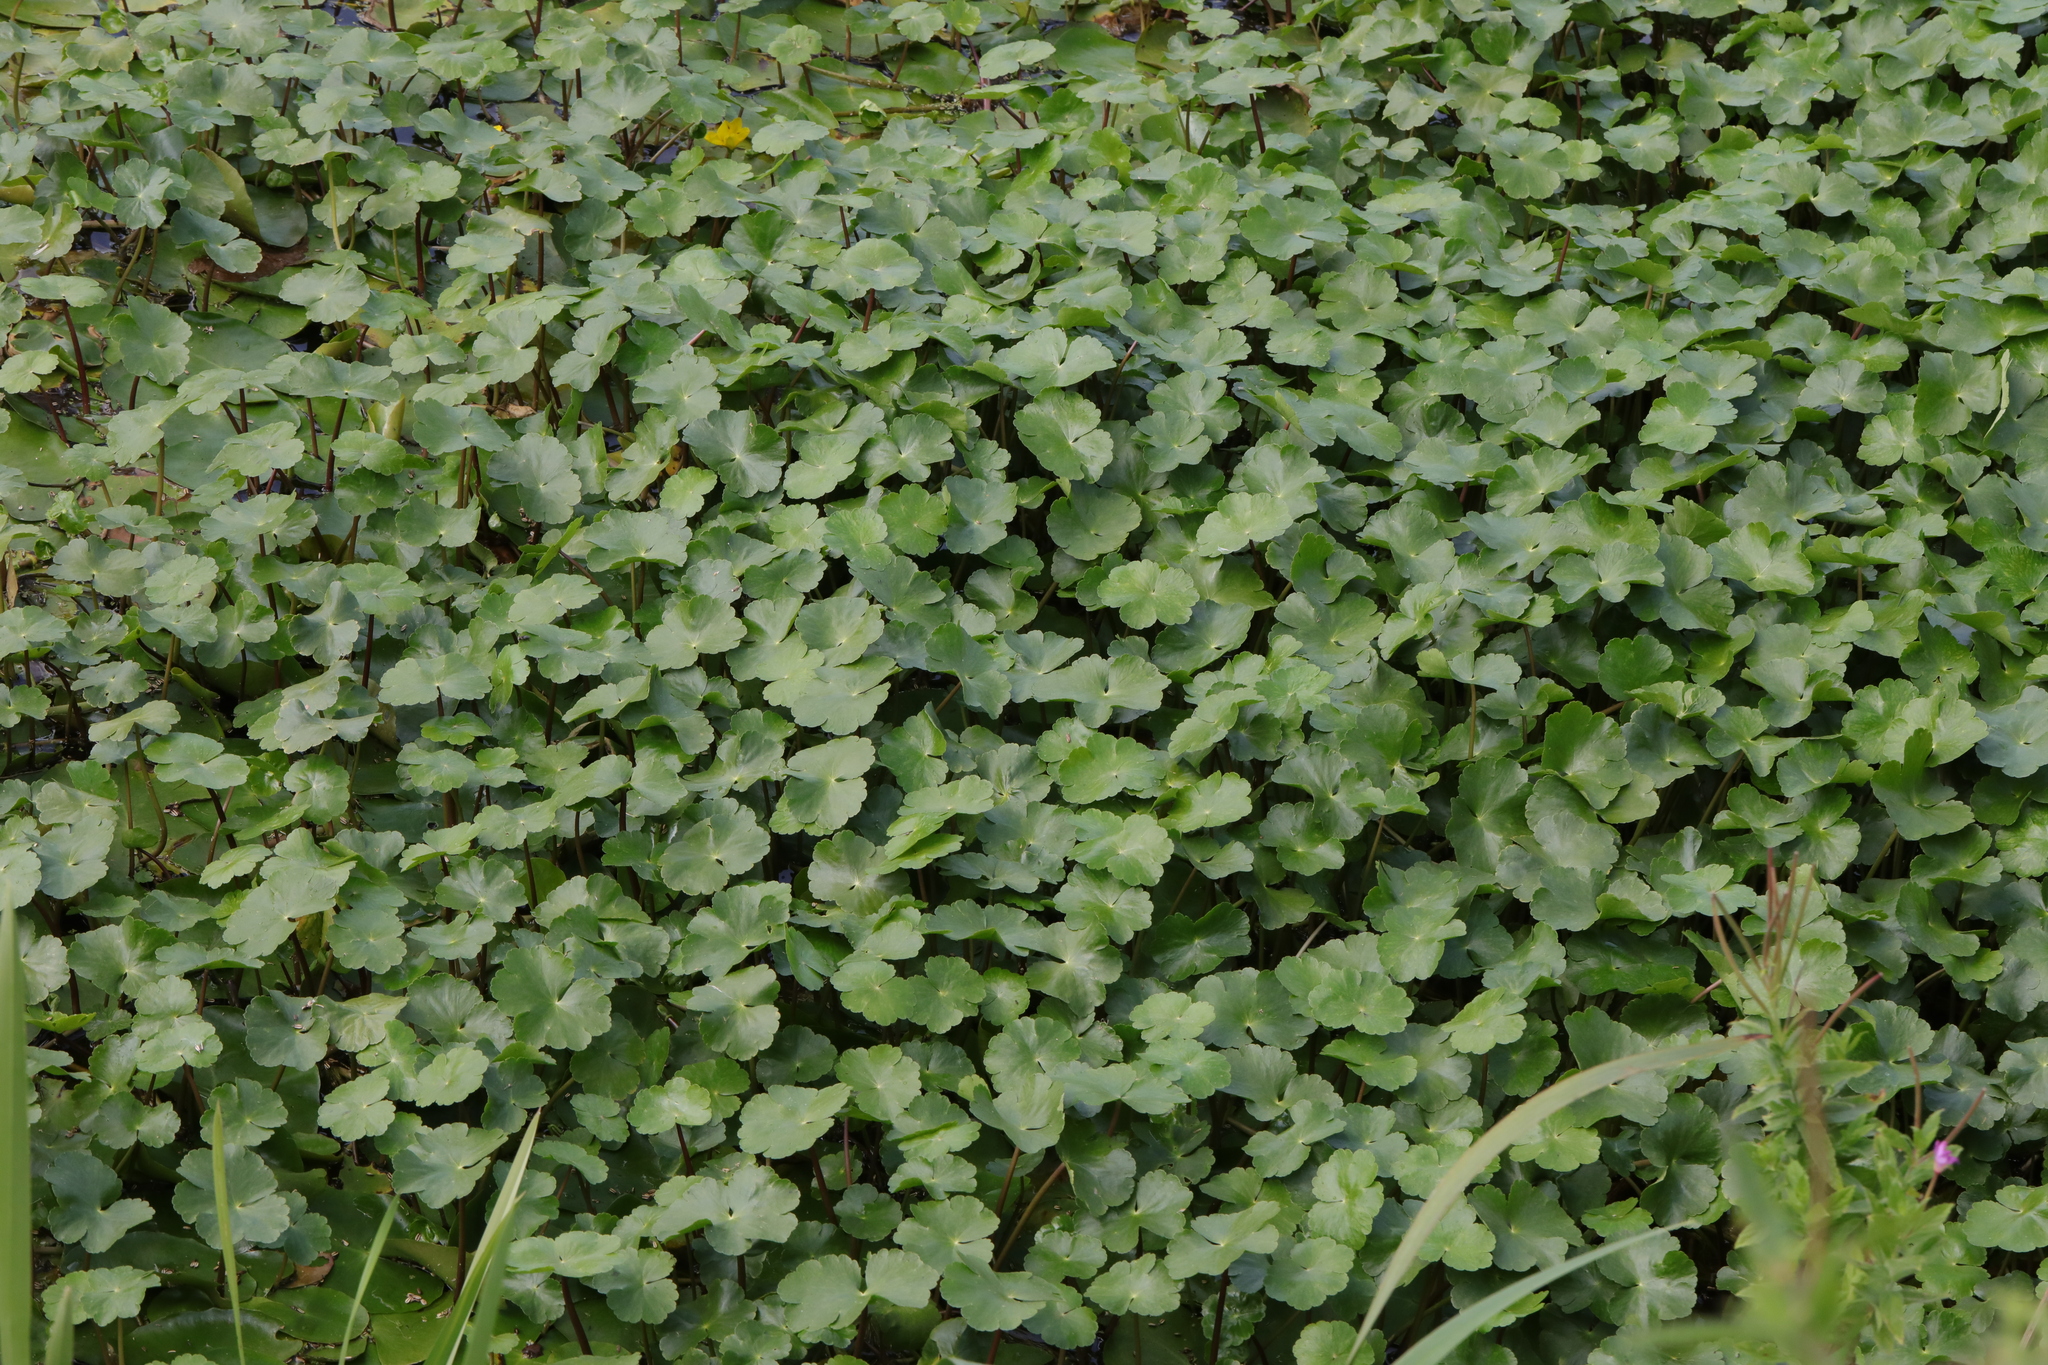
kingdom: Plantae
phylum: Tracheophyta
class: Magnoliopsida
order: Apiales
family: Araliaceae
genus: Hydrocotyle
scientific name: Hydrocotyle ranunculoides
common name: Floating pennywort
